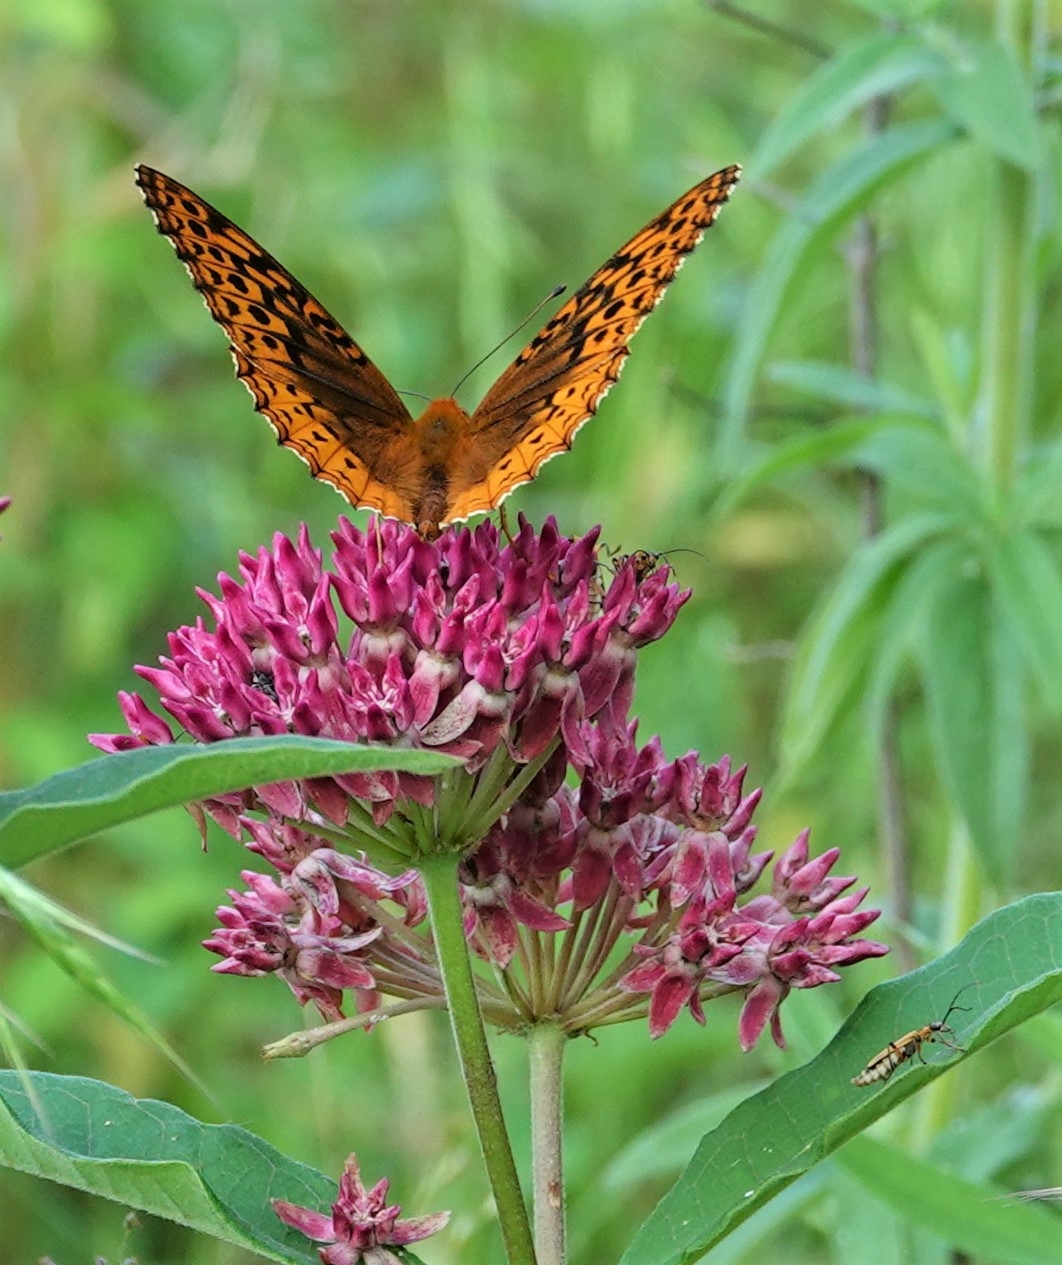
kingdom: Animalia
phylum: Arthropoda
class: Insecta
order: Lepidoptera
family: Nymphalidae
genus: Speyeria
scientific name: Speyeria cybele
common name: Great spangled fritillary
